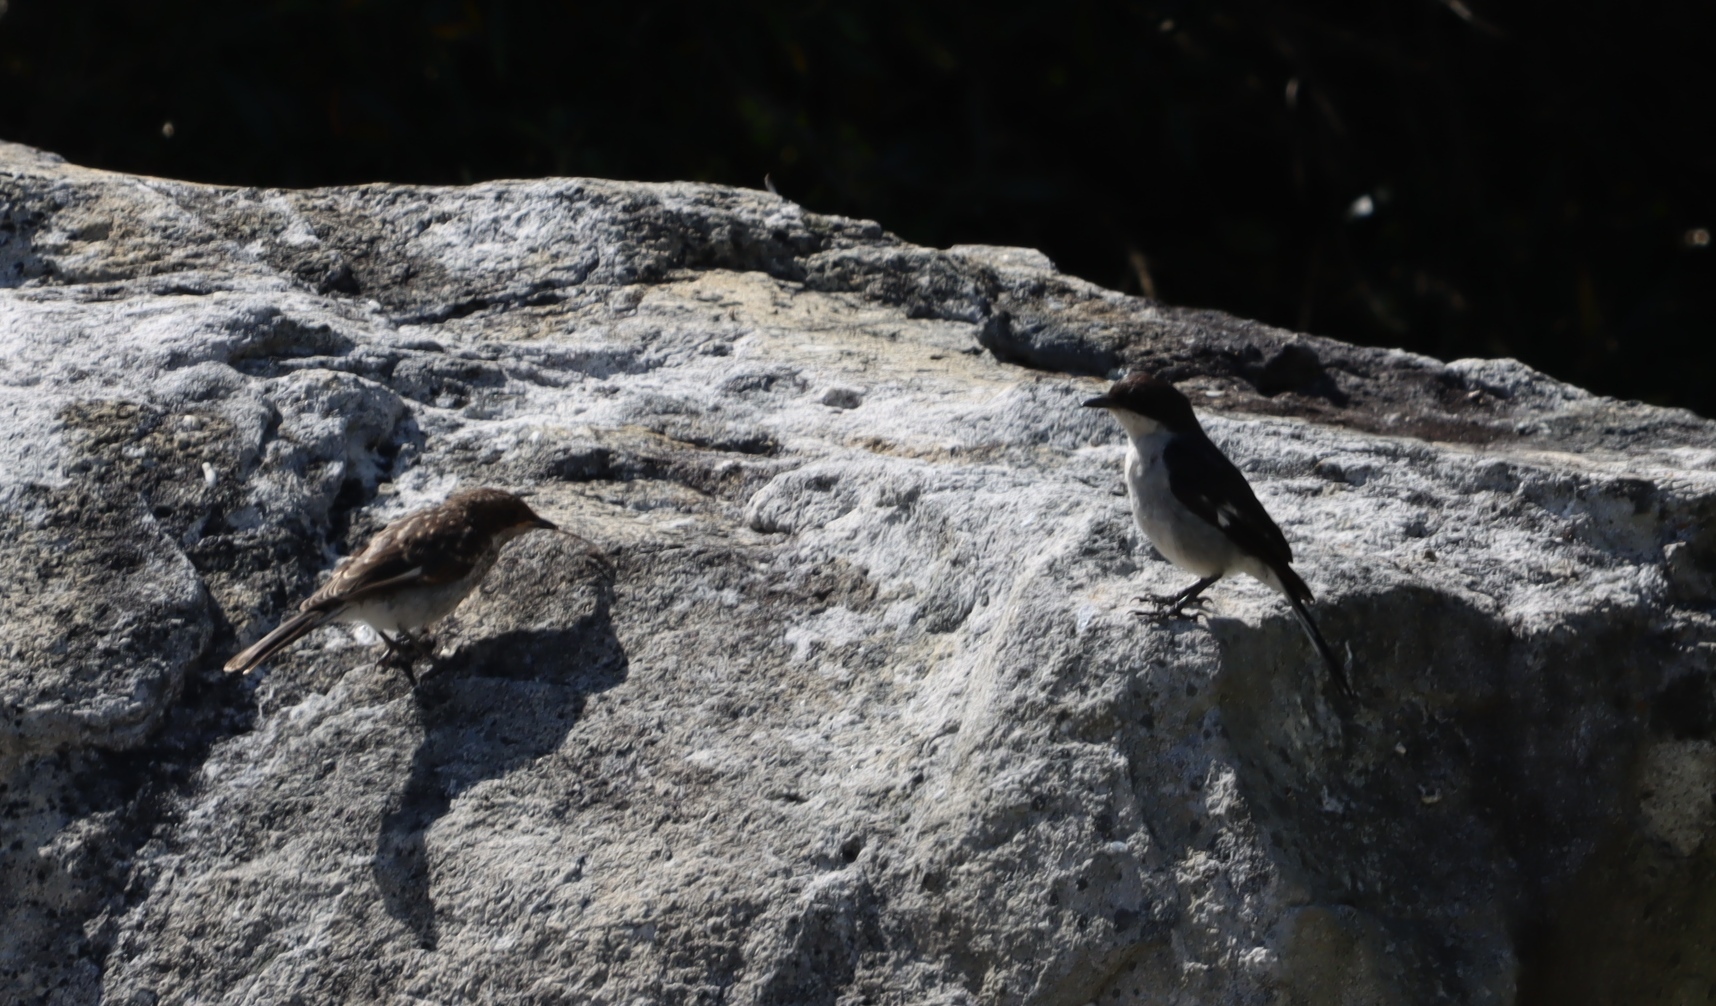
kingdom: Animalia
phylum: Chordata
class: Aves
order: Passeriformes
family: Muscicapidae
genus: Sigelus
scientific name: Sigelus silens
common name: Fiscal flycatcher
